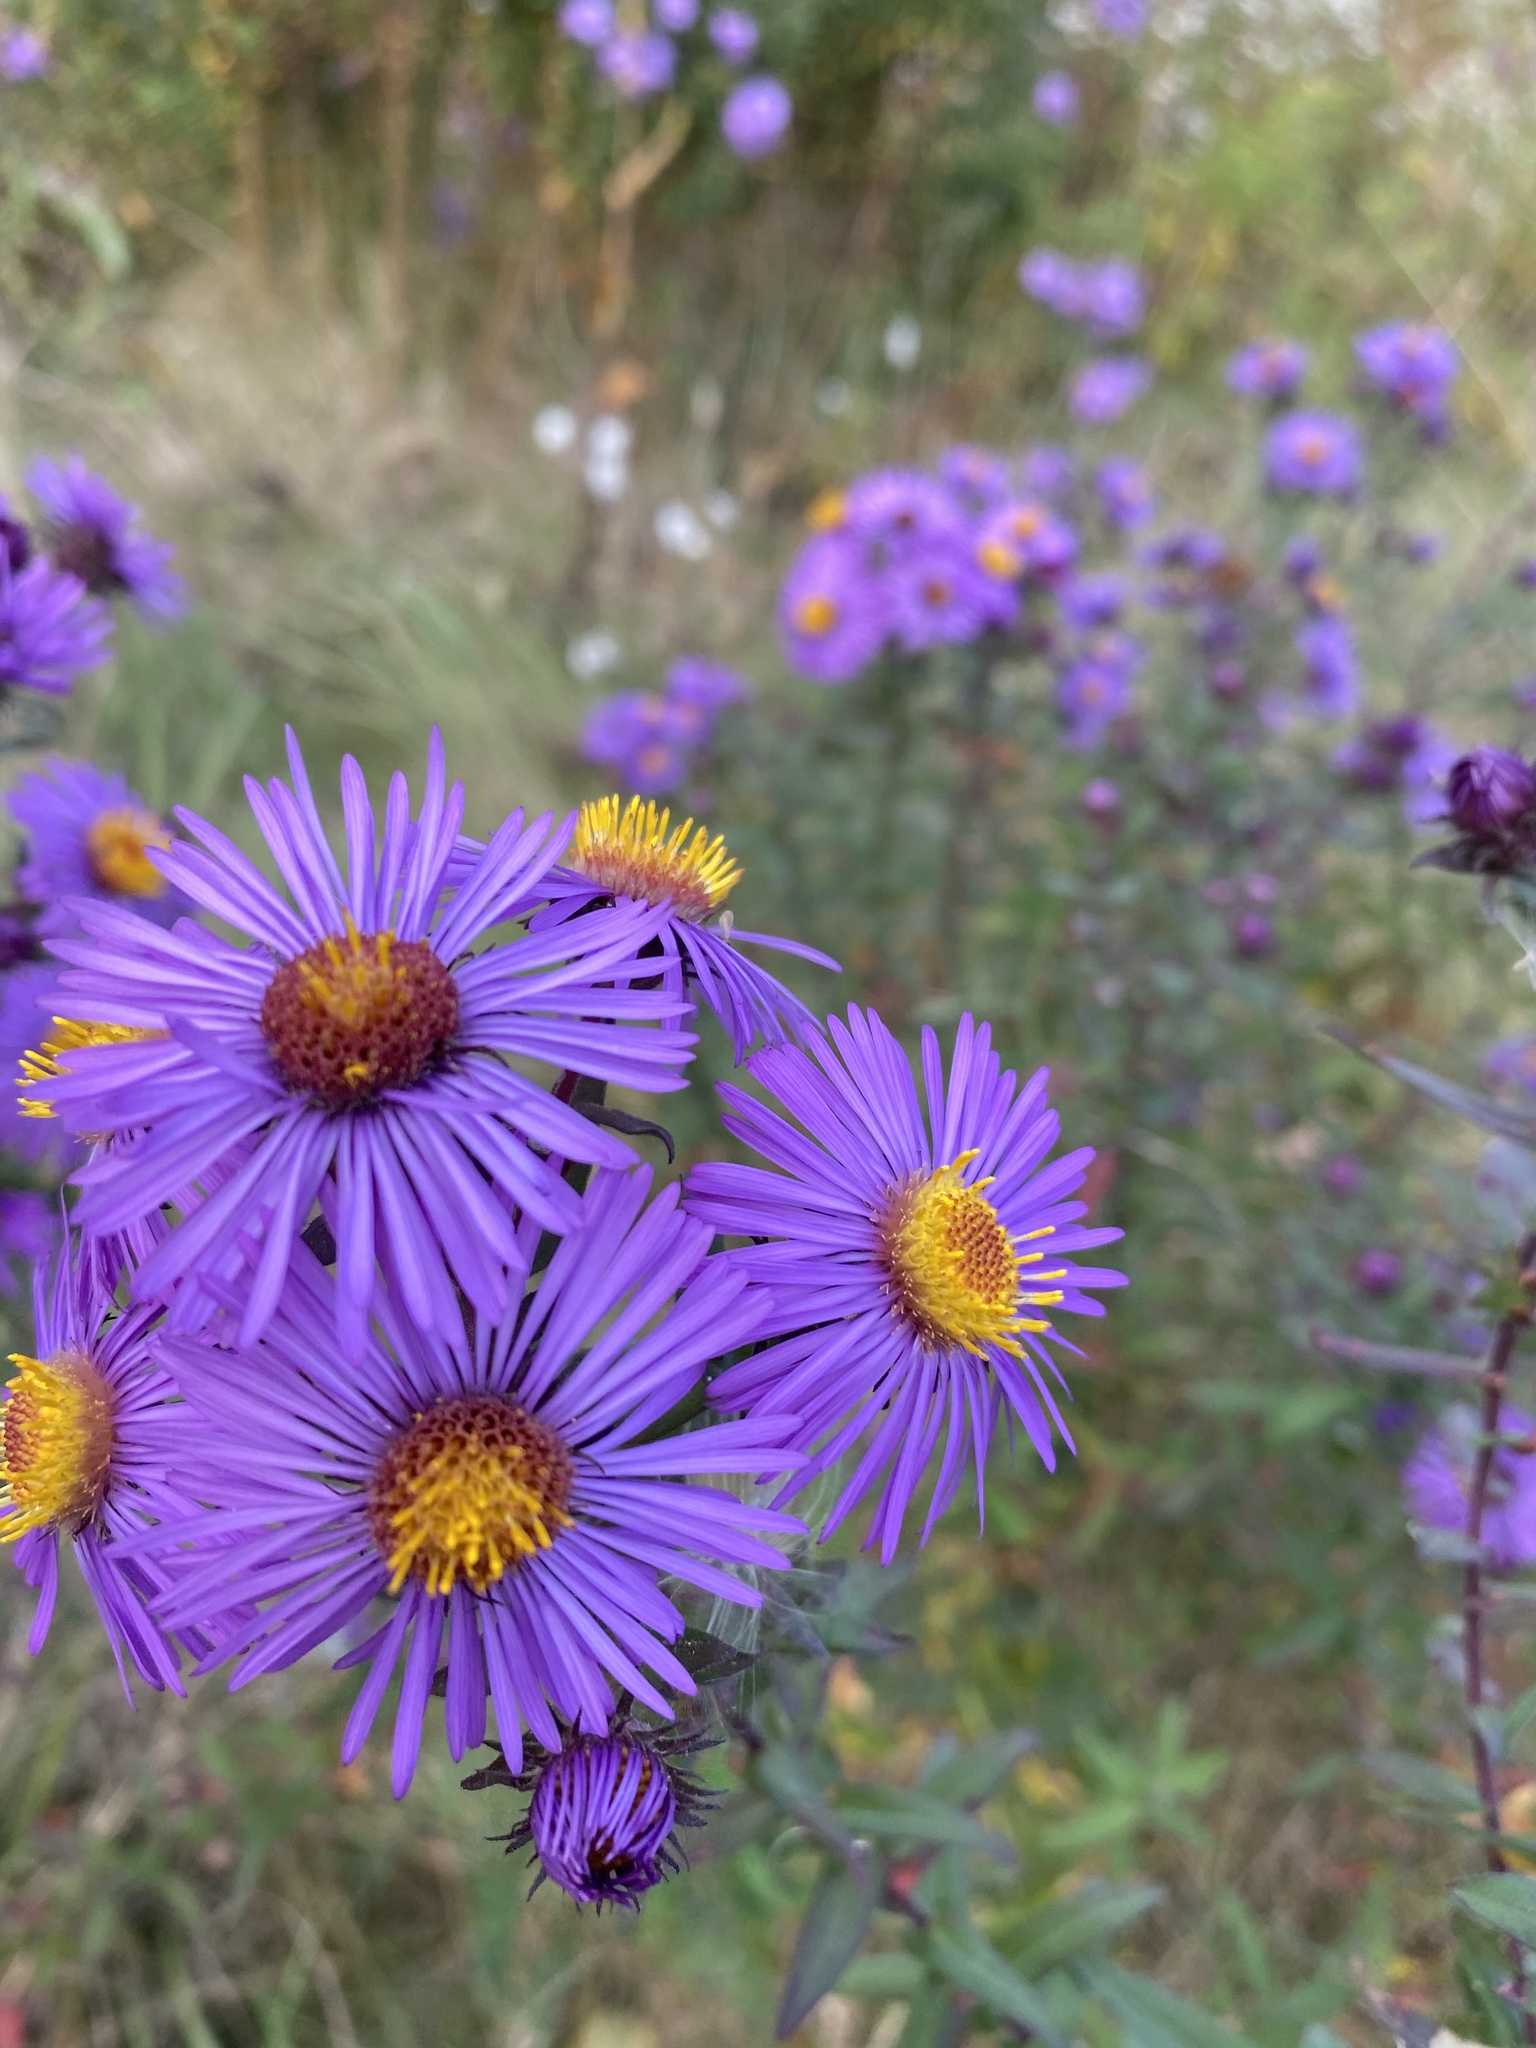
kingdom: Plantae
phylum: Tracheophyta
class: Magnoliopsida
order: Asterales
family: Asteraceae
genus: Symphyotrichum
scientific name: Symphyotrichum novae-angliae
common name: Michaelmas daisy
